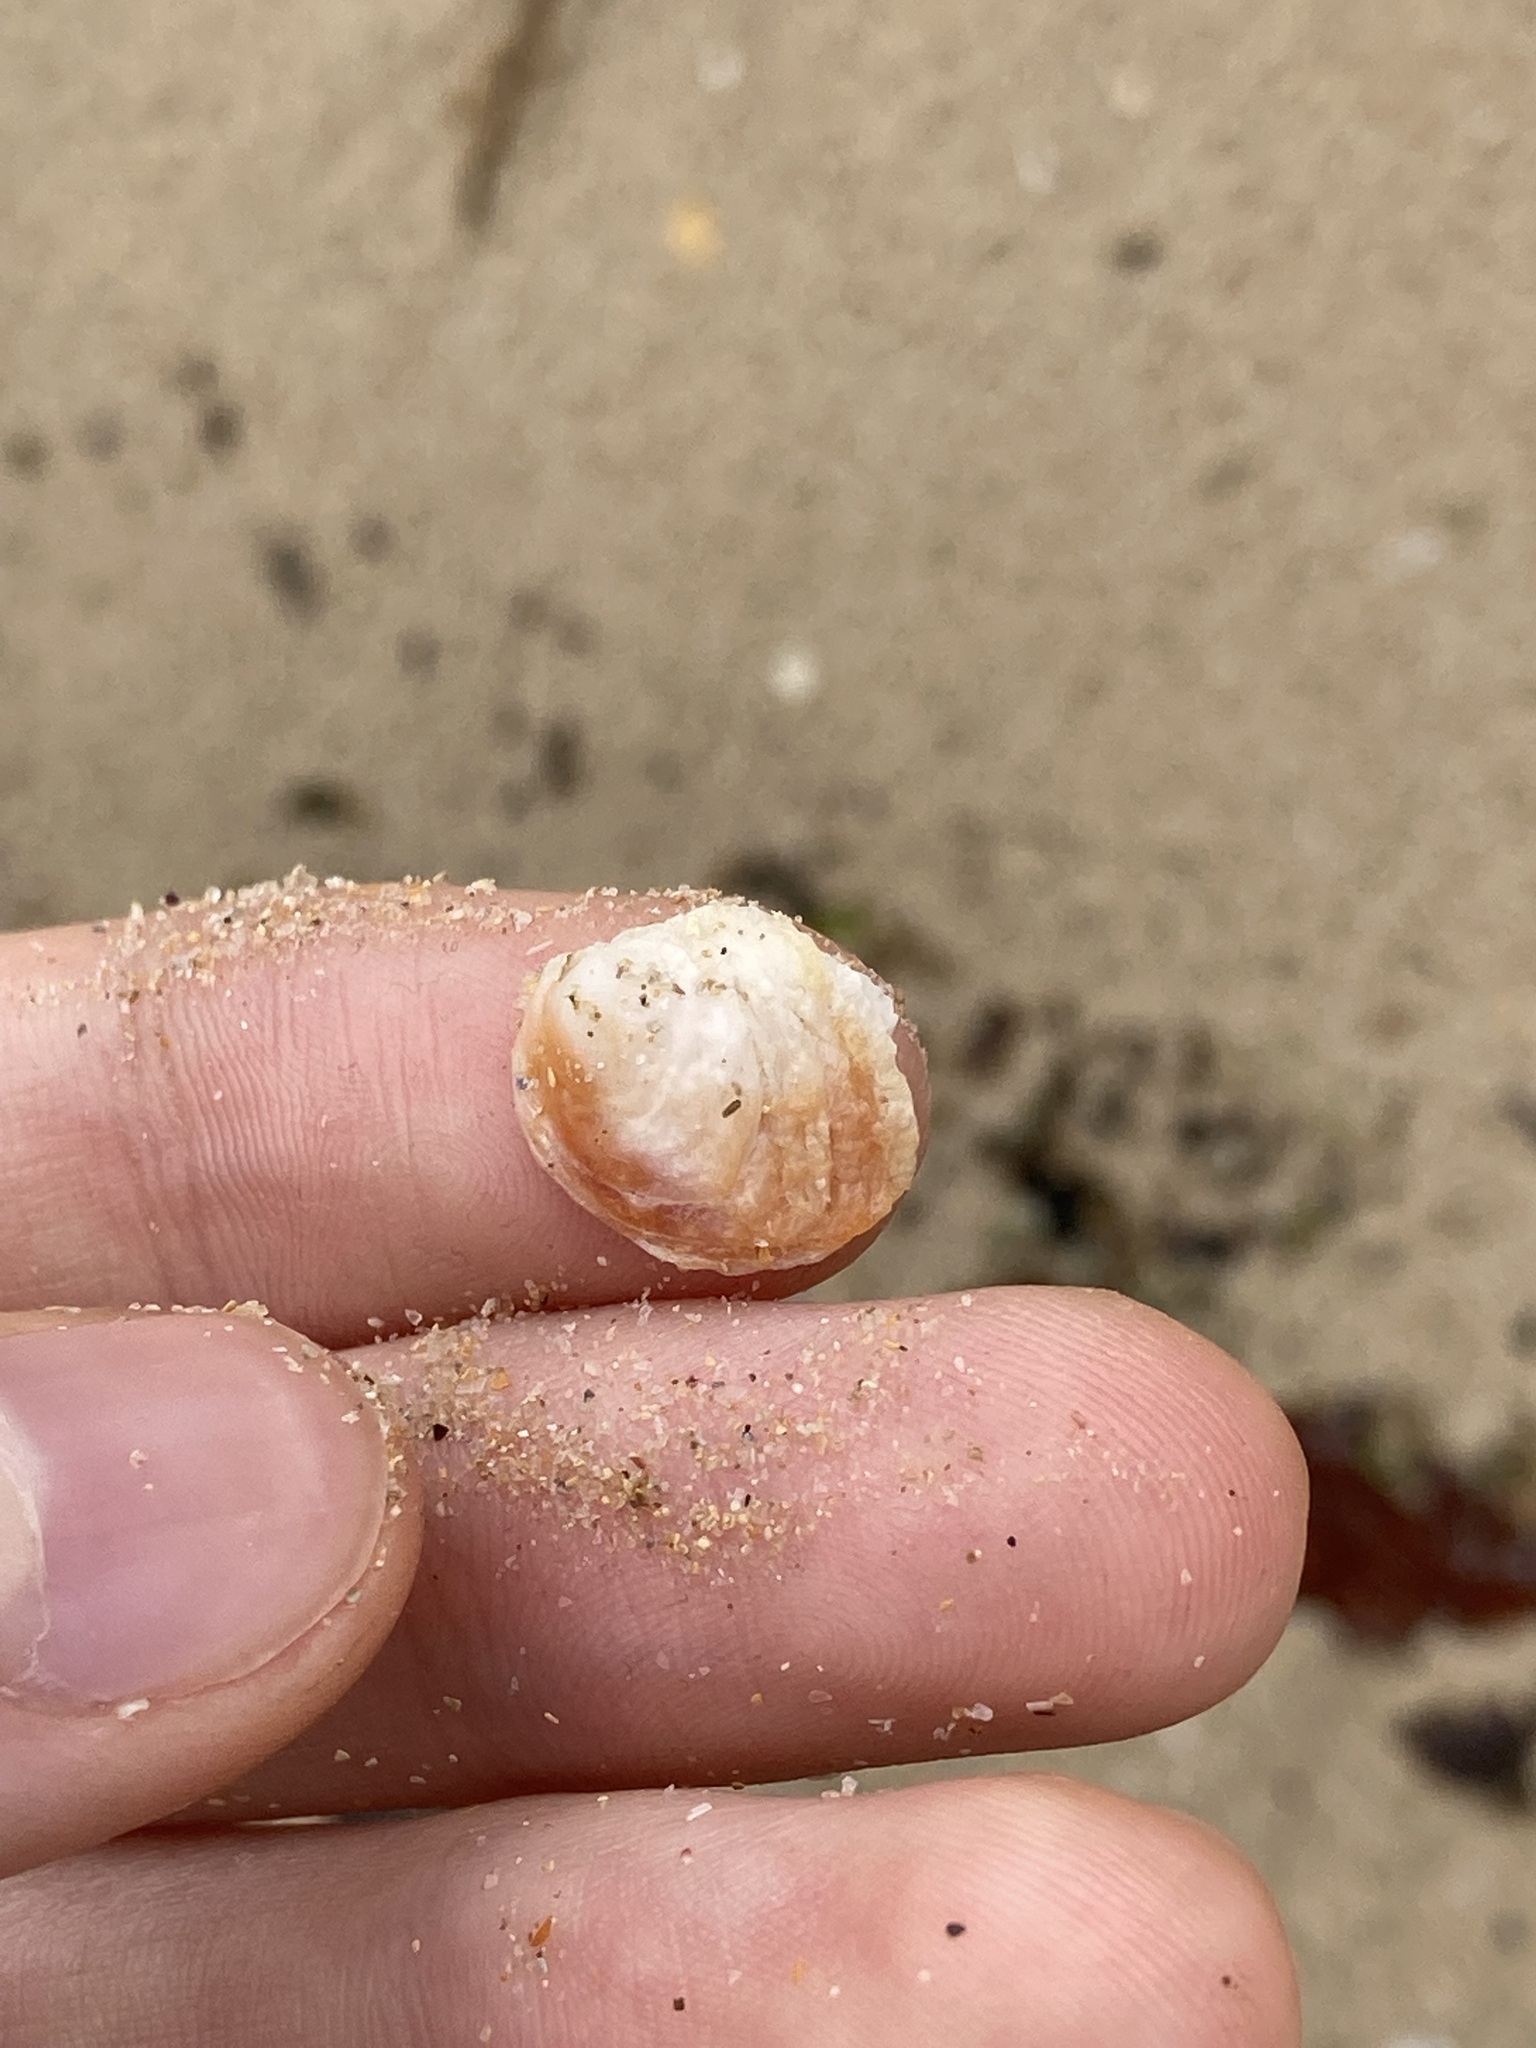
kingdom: Animalia
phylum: Mollusca
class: Bivalvia
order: Venerida
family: Chamidae
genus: Chama
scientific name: Chama asperella
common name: Mollusca
